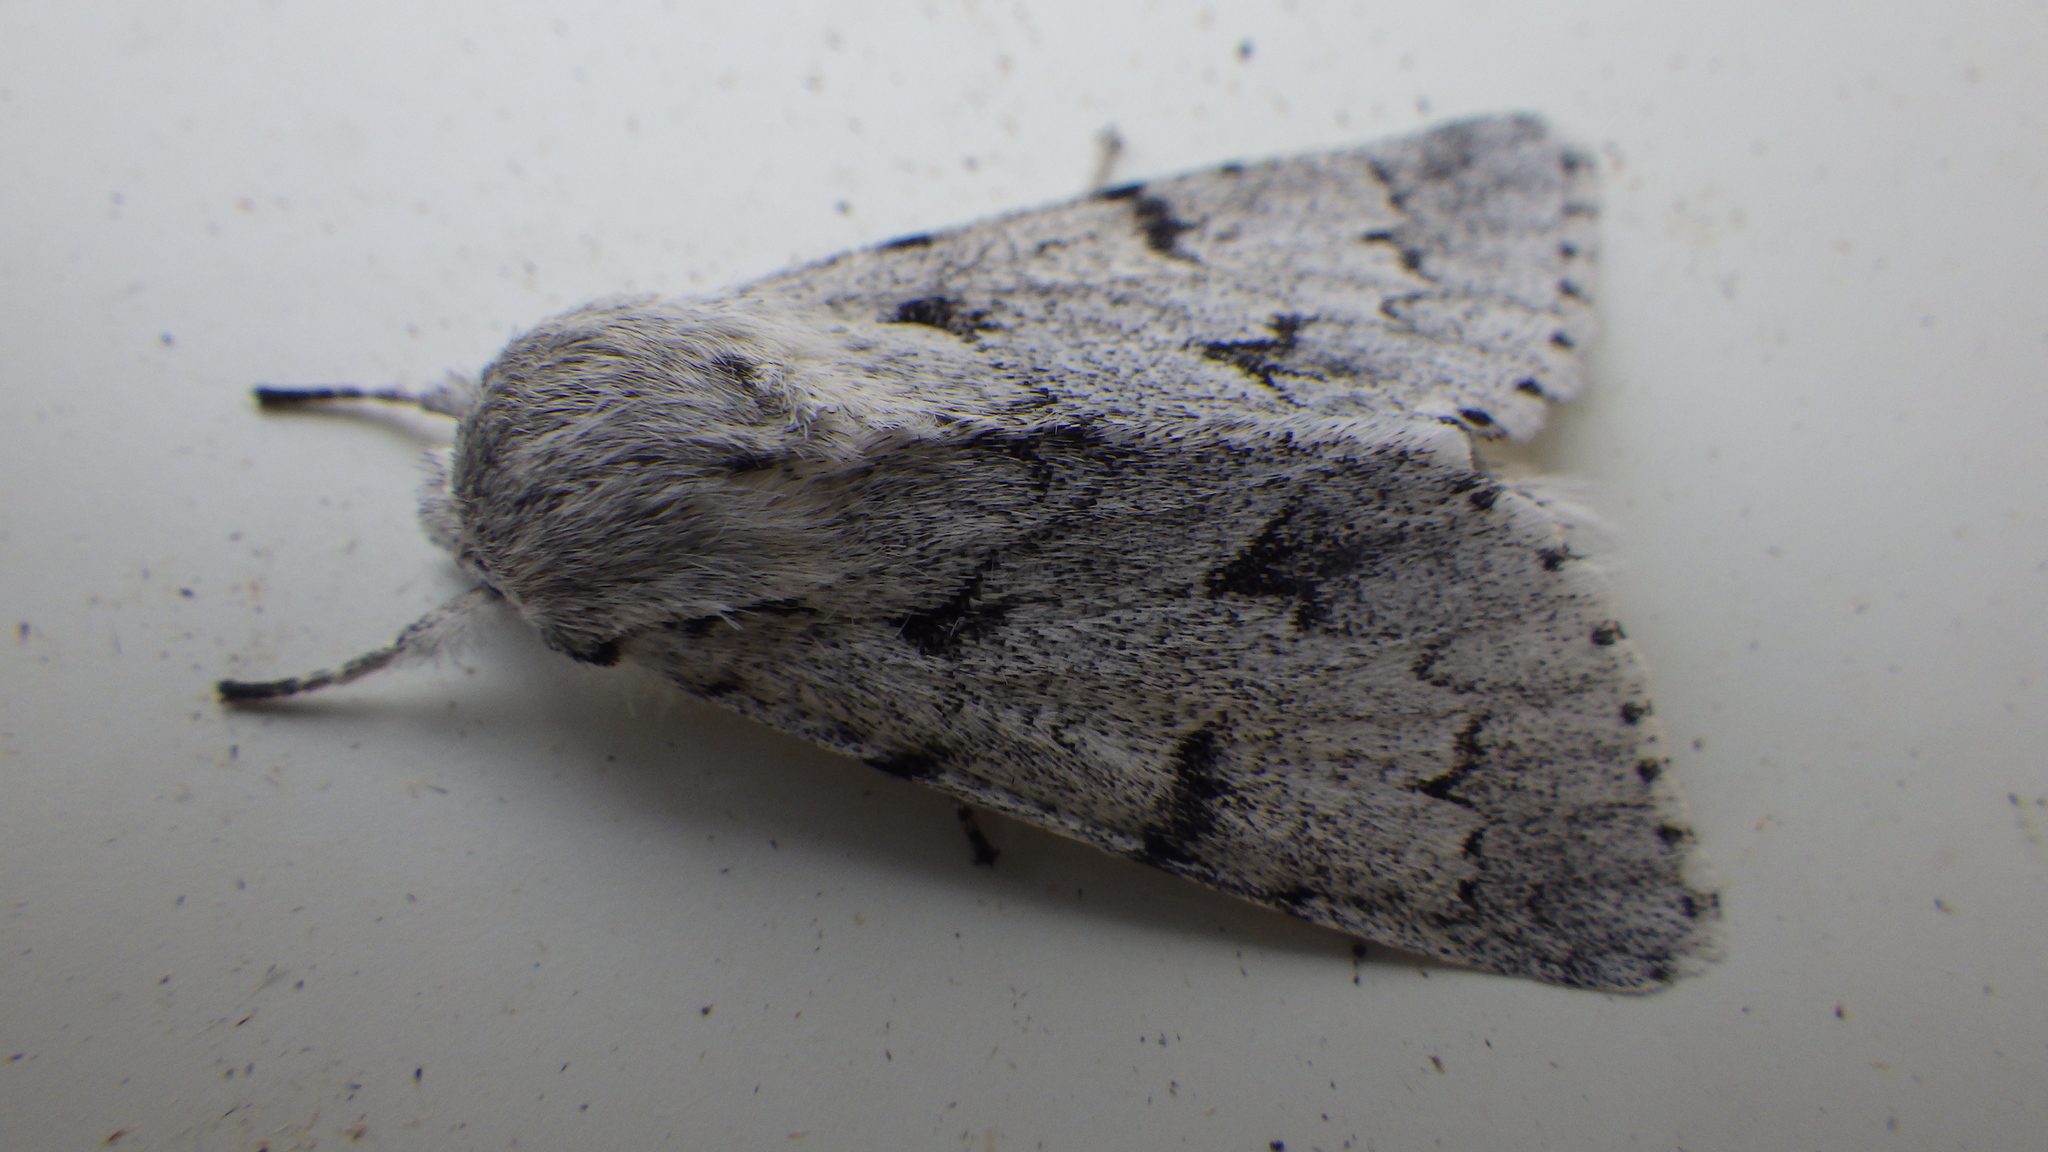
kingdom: Animalia
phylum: Arthropoda
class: Insecta
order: Lepidoptera
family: Noctuidae
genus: Acronicta
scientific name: Acronicta leporina
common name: Miller
